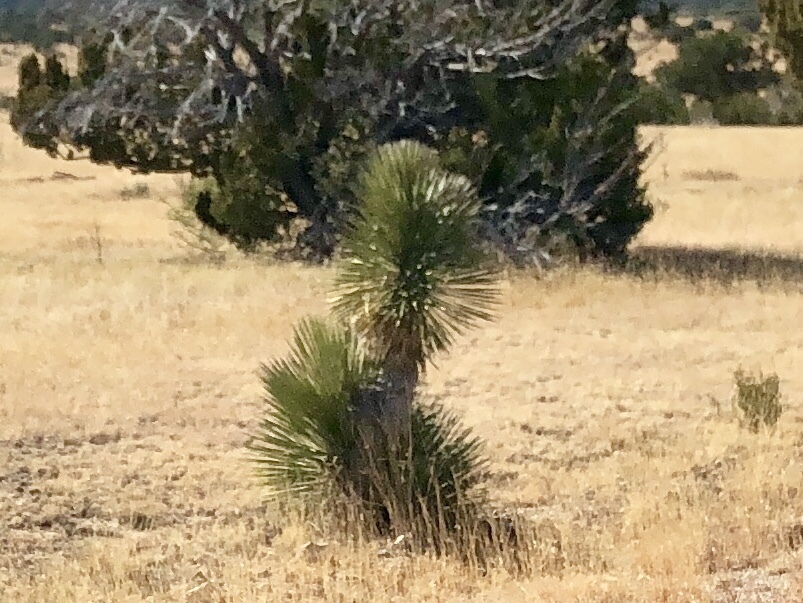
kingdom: Plantae
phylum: Tracheophyta
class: Liliopsida
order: Asparagales
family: Asparagaceae
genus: Yucca
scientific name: Yucca elata
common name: Palmella
